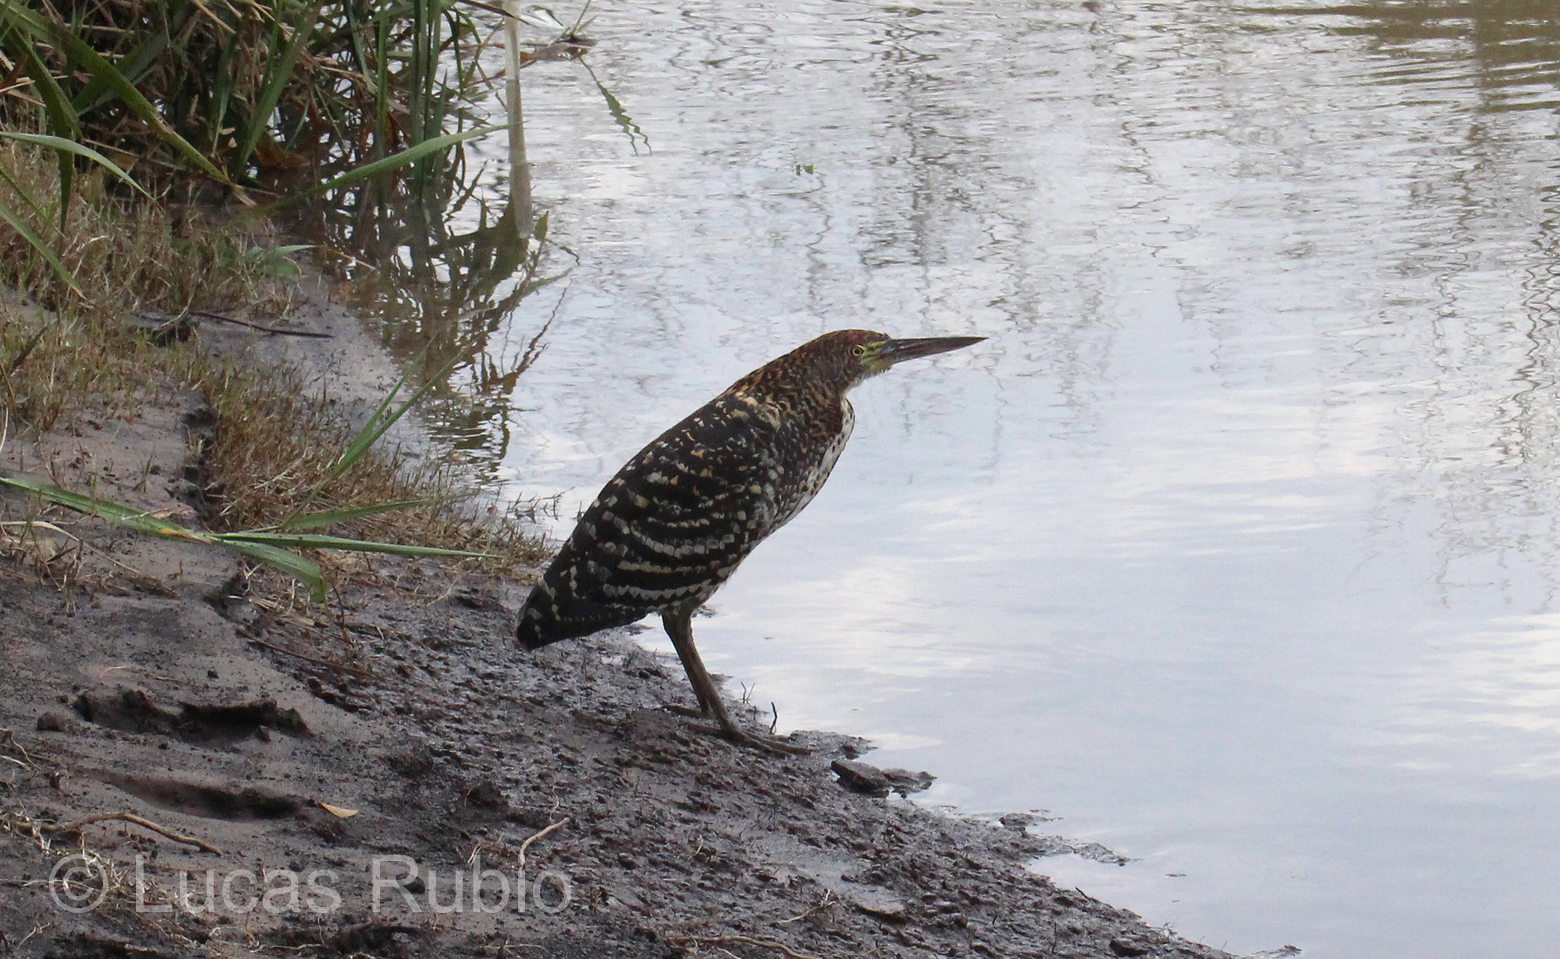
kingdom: Animalia
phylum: Chordata
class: Aves
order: Pelecaniformes
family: Ardeidae
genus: Tigrisoma
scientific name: Tigrisoma lineatum
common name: Rufescent tiger-heron
